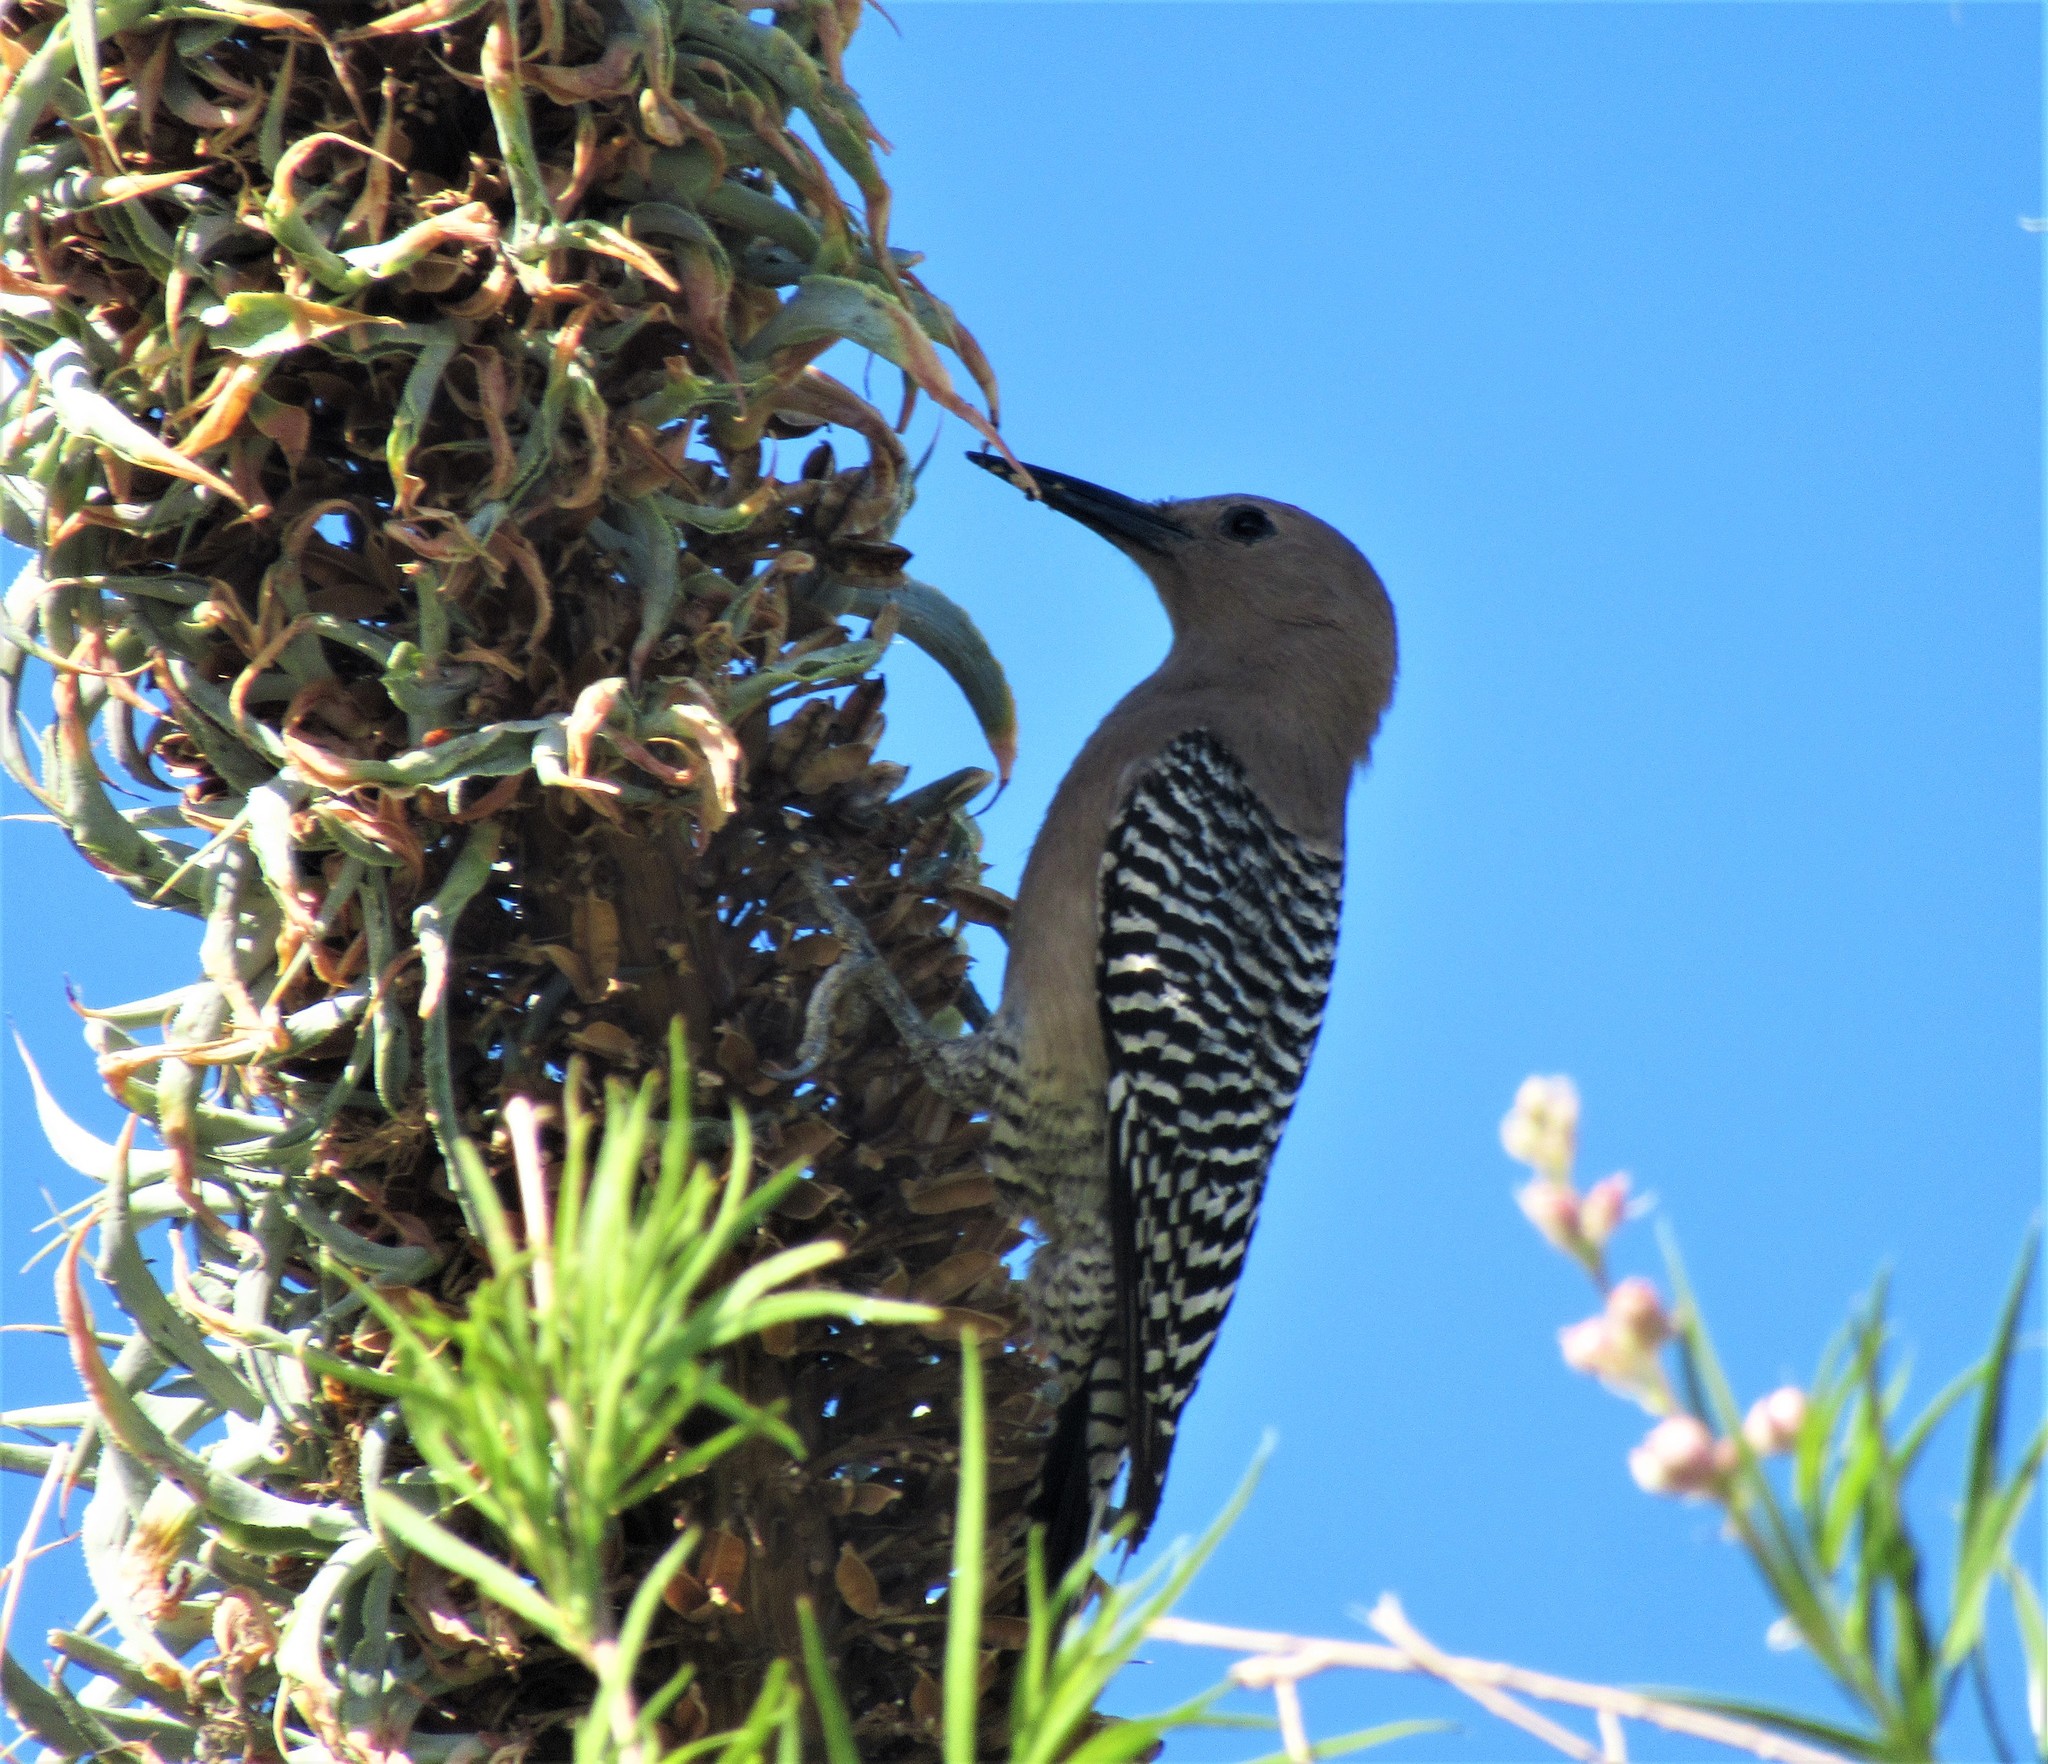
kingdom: Animalia
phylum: Chordata
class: Aves
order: Piciformes
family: Picidae
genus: Melanerpes
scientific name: Melanerpes uropygialis
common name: Gila woodpecker
